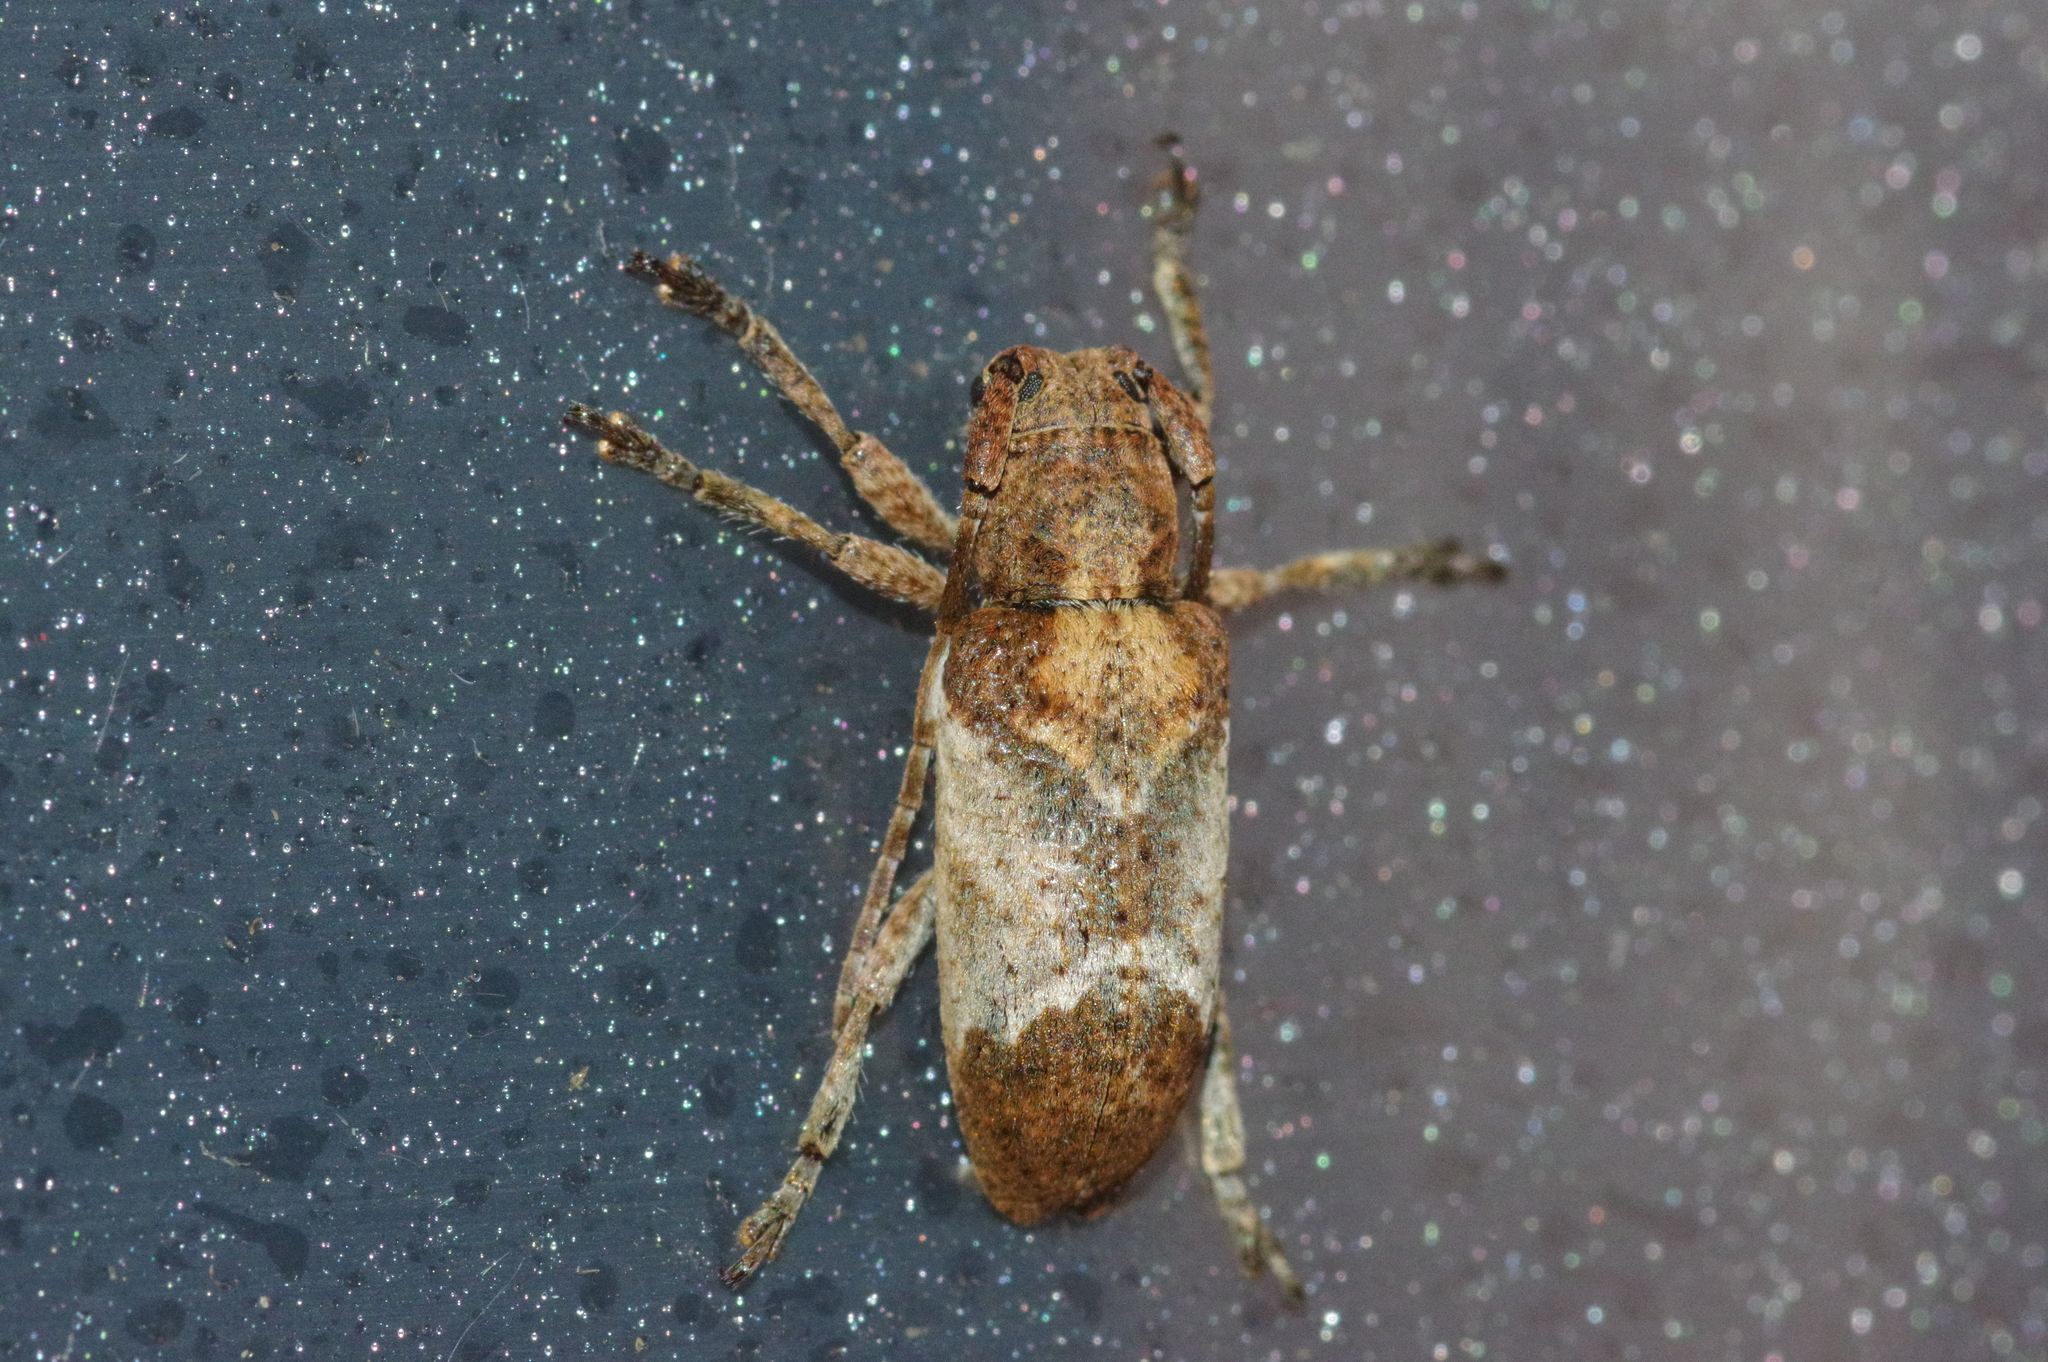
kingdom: Animalia
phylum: Arthropoda
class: Insecta
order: Coleoptera
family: Cerambycidae
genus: Pterolophia
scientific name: Pterolophia annulata
